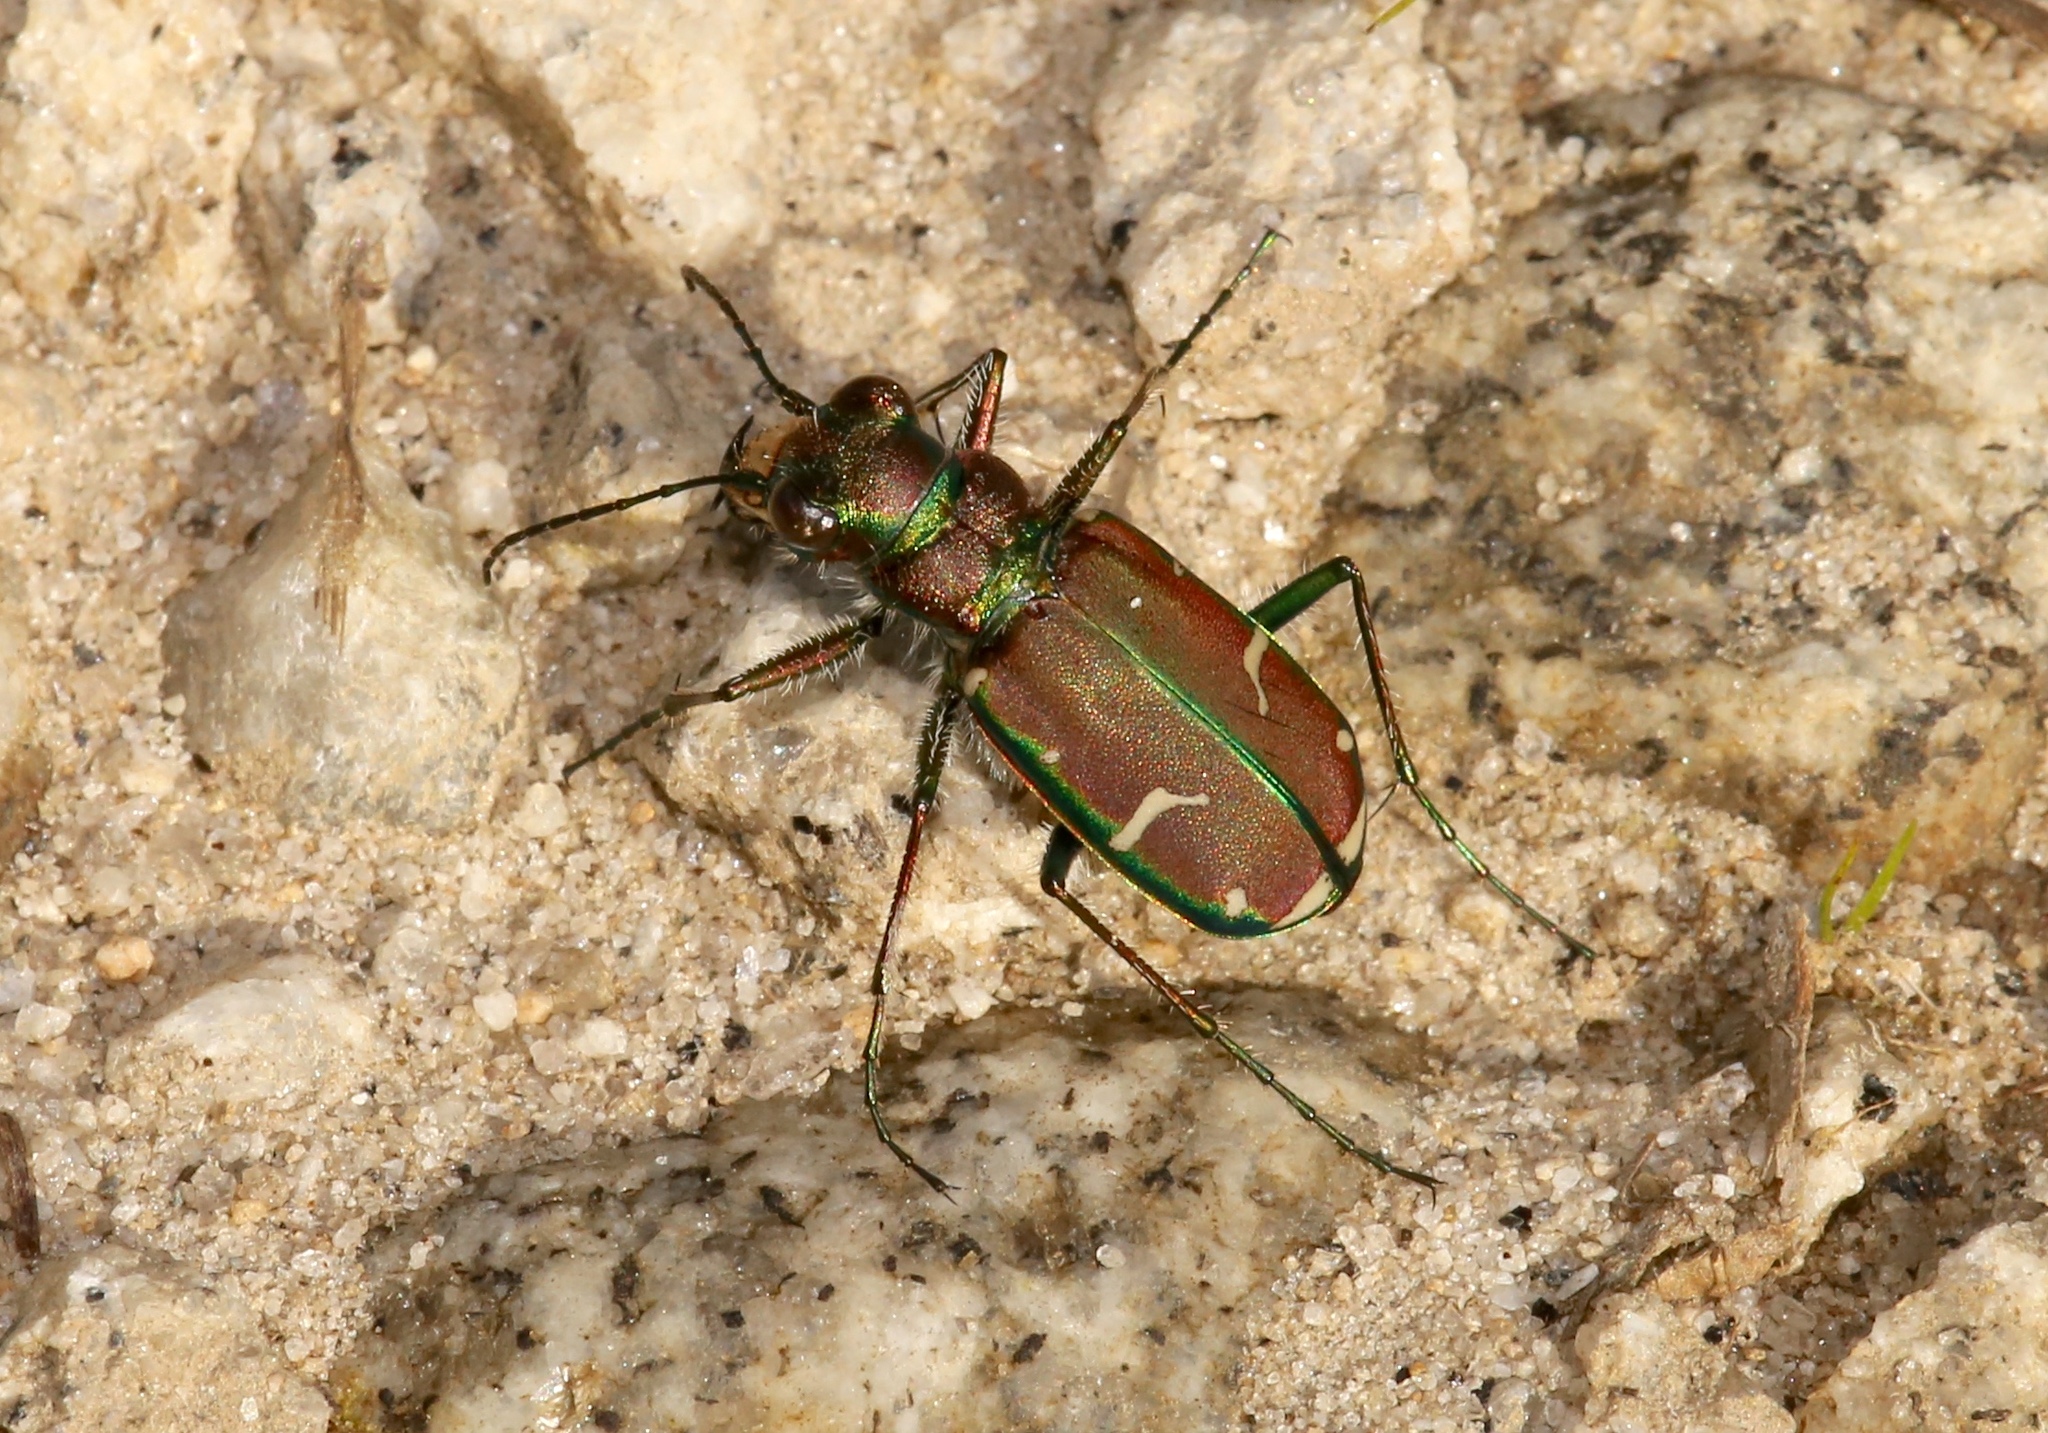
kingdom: Animalia
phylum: Arthropoda
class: Insecta
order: Coleoptera
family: Carabidae
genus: Cicindela
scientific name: Cicindela limbalis
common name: Common claybank tiger beetle
